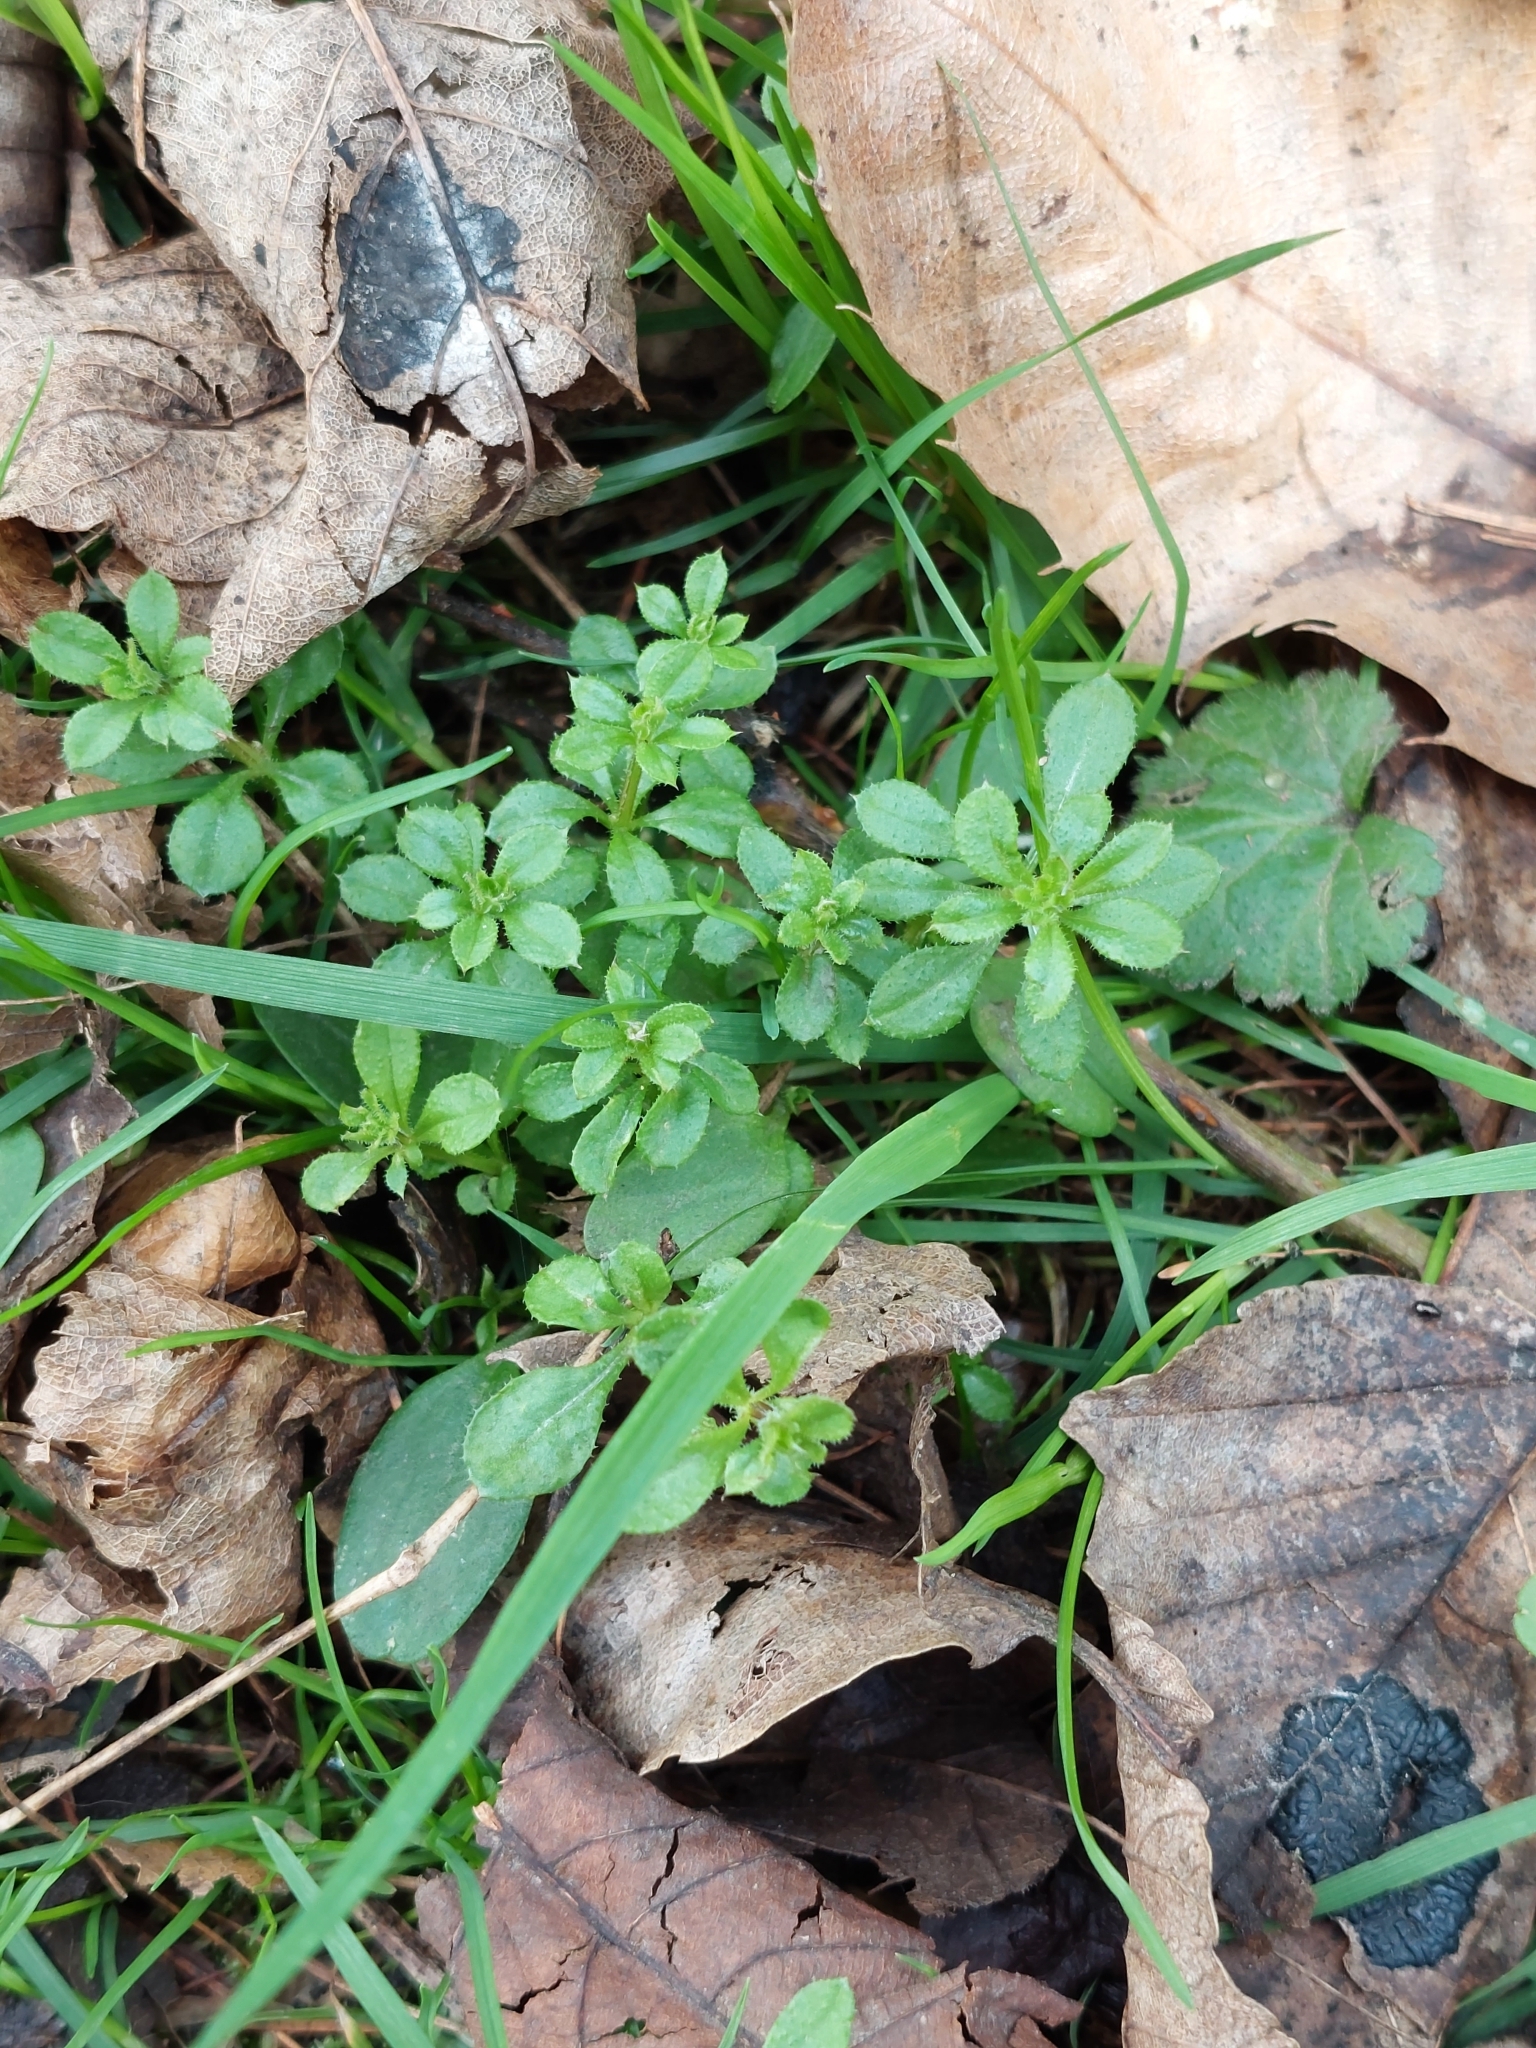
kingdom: Plantae
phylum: Tracheophyta
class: Magnoliopsida
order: Gentianales
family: Rubiaceae
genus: Galium
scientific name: Galium aparine
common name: Cleavers
